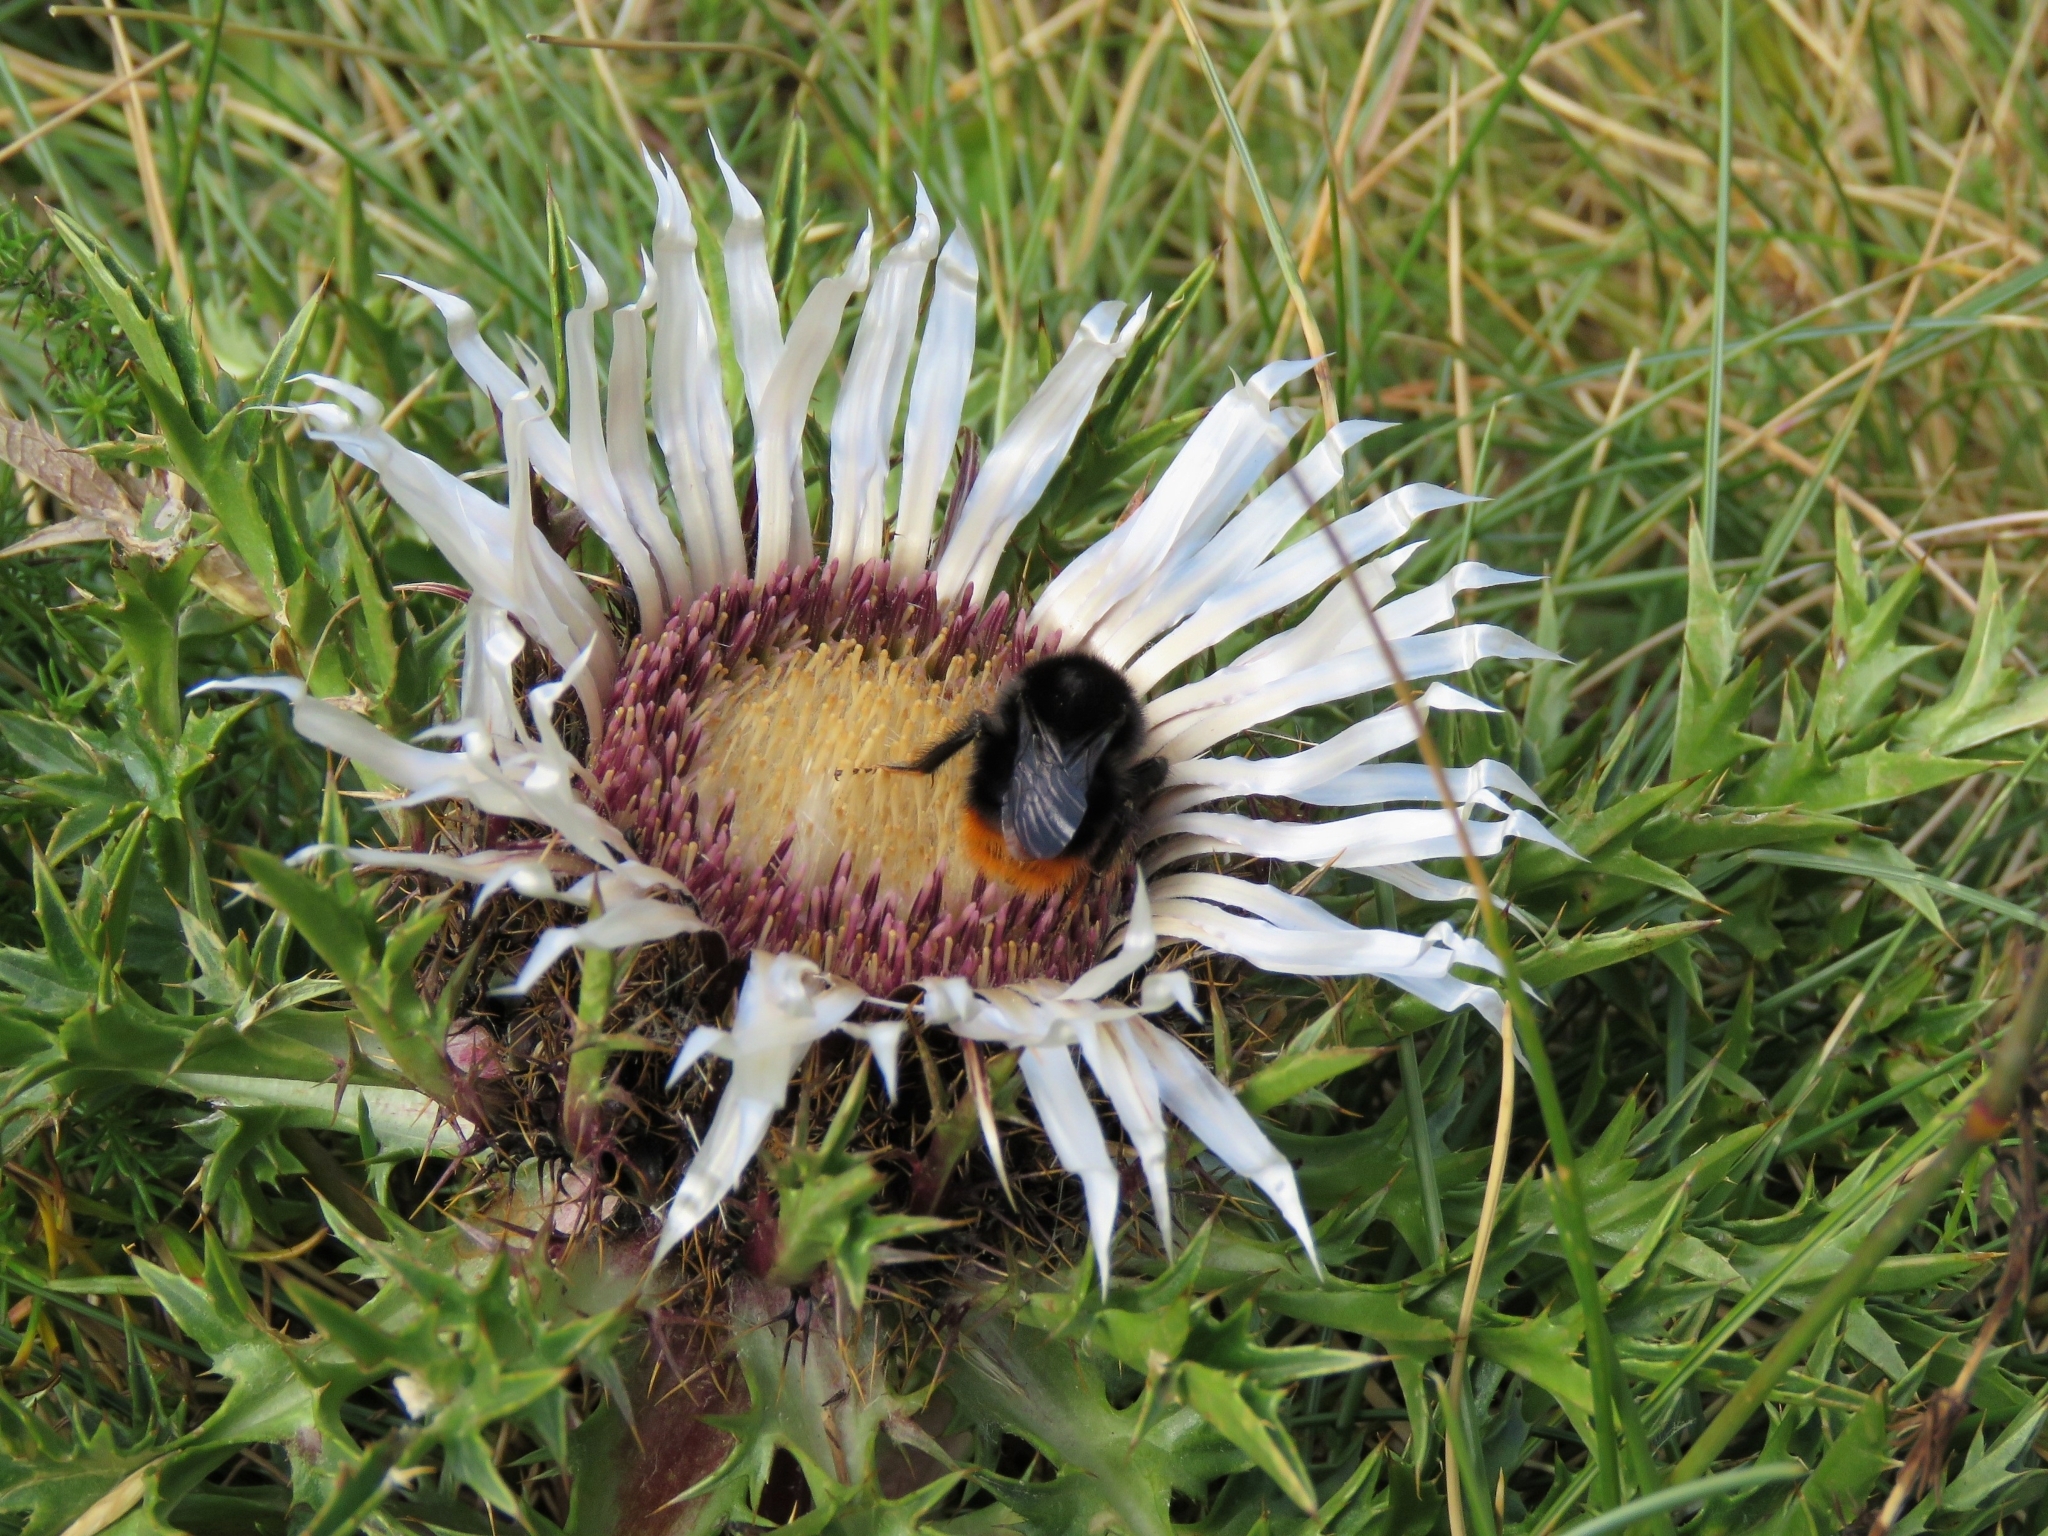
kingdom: Animalia
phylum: Arthropoda
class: Insecta
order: Hymenoptera
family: Apidae
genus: Bombus
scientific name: Bombus lapidarius
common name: Large red-tailed humble-bee
